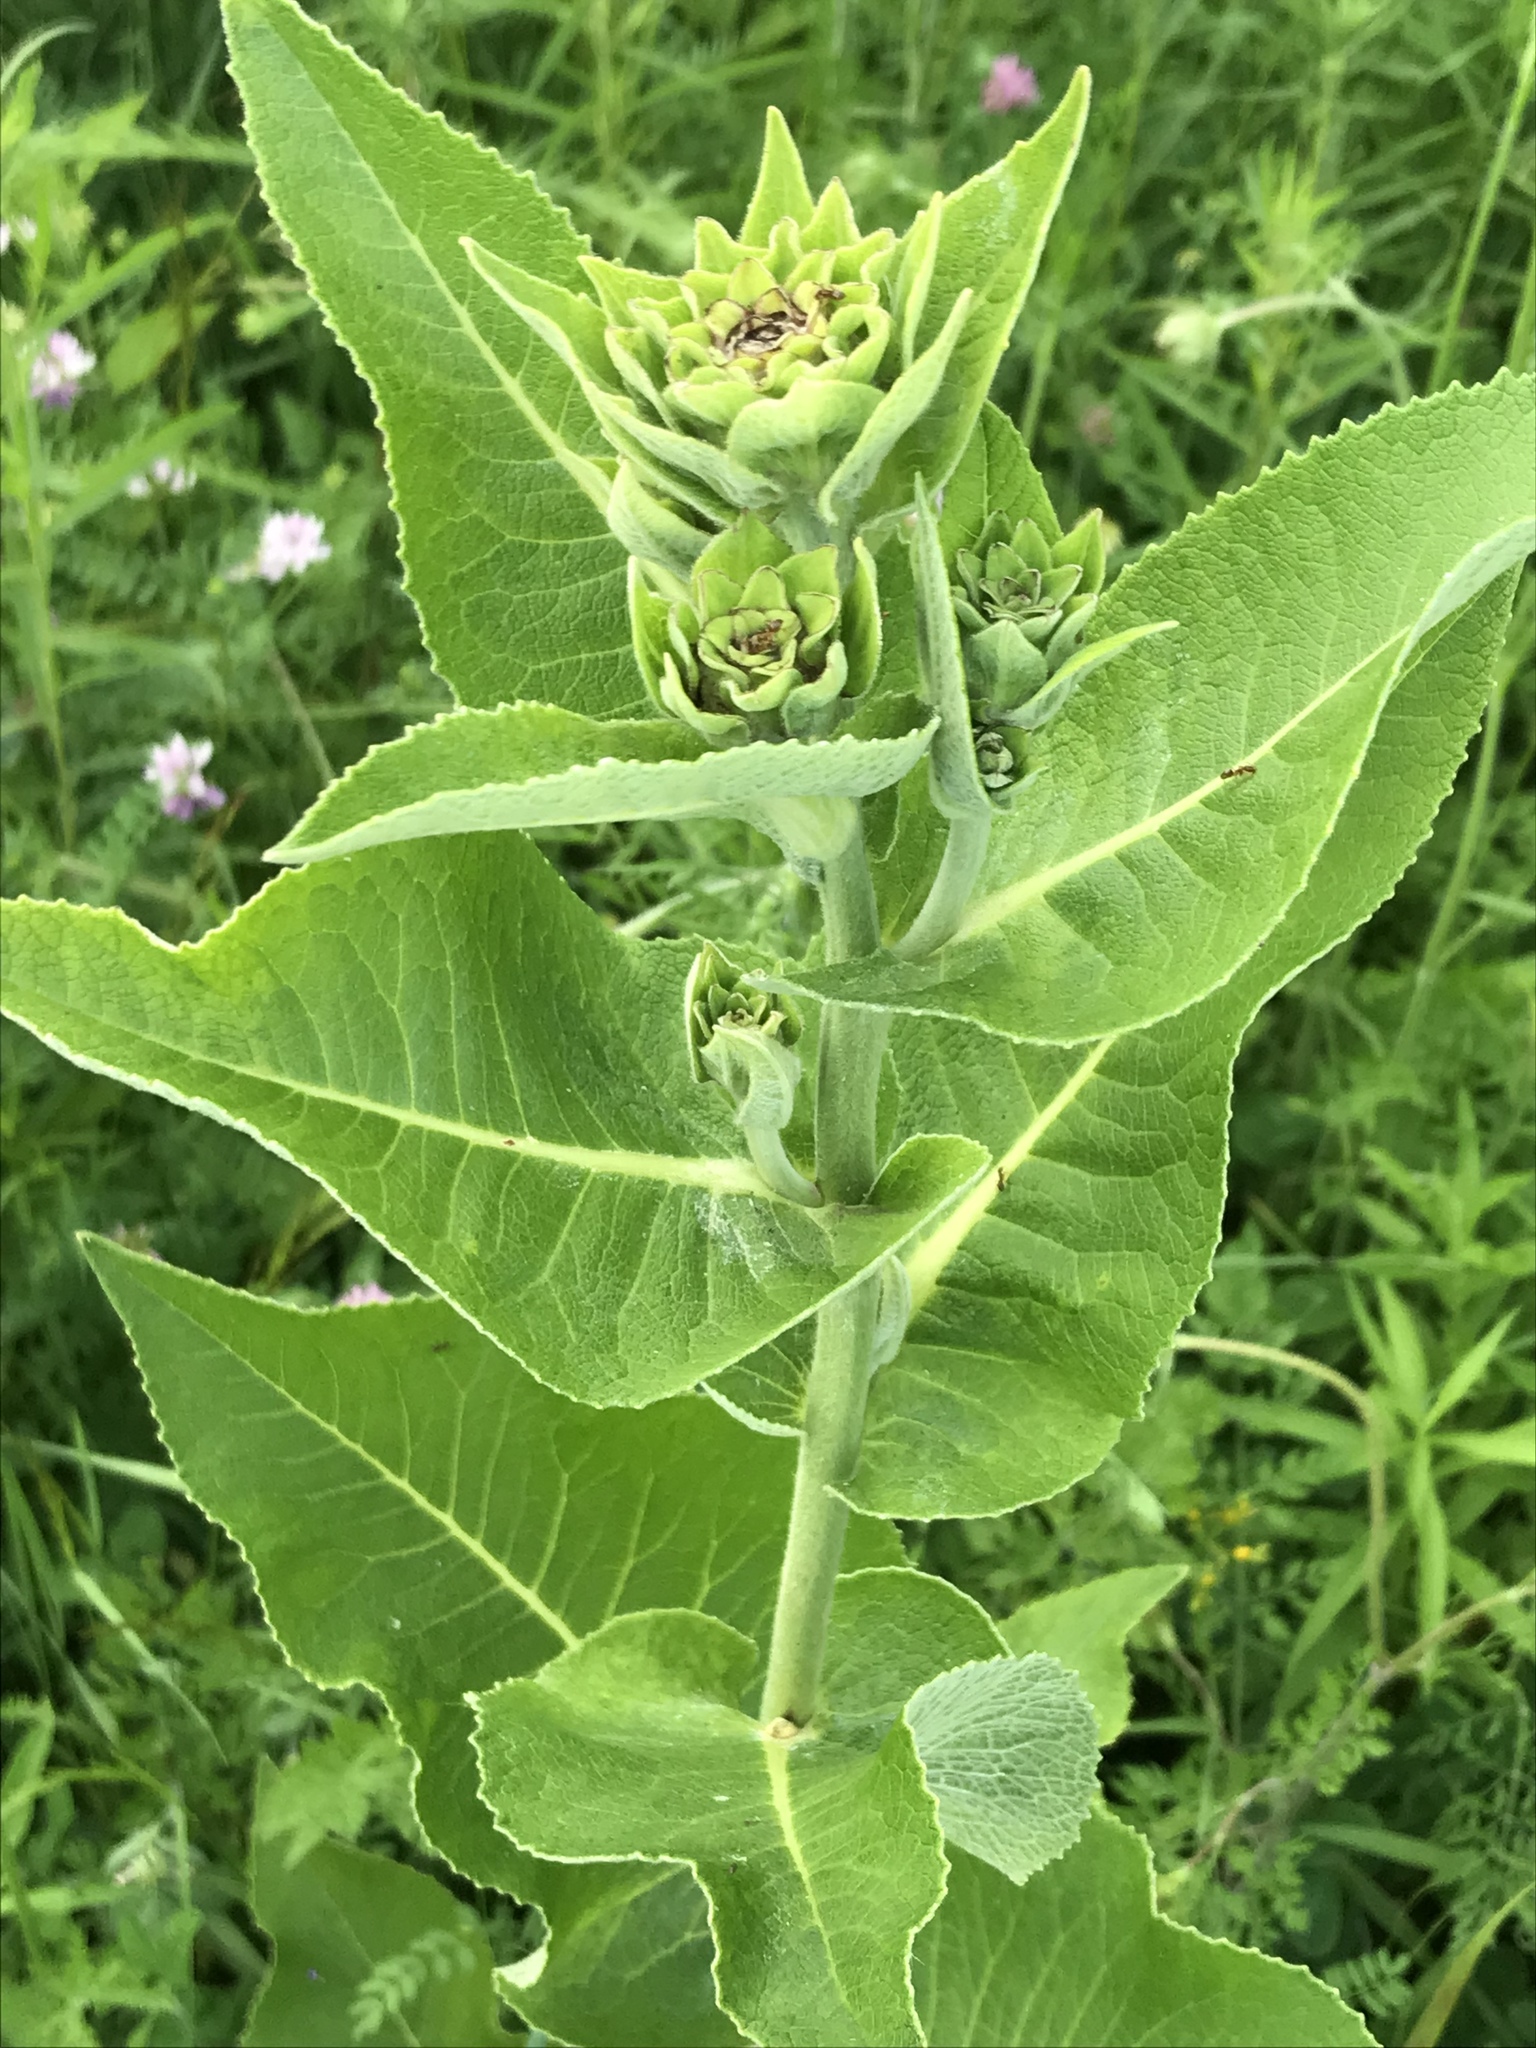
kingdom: Plantae
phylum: Tracheophyta
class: Magnoliopsida
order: Asterales
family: Asteraceae
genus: Inula
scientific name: Inula helenium
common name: Elecampane
